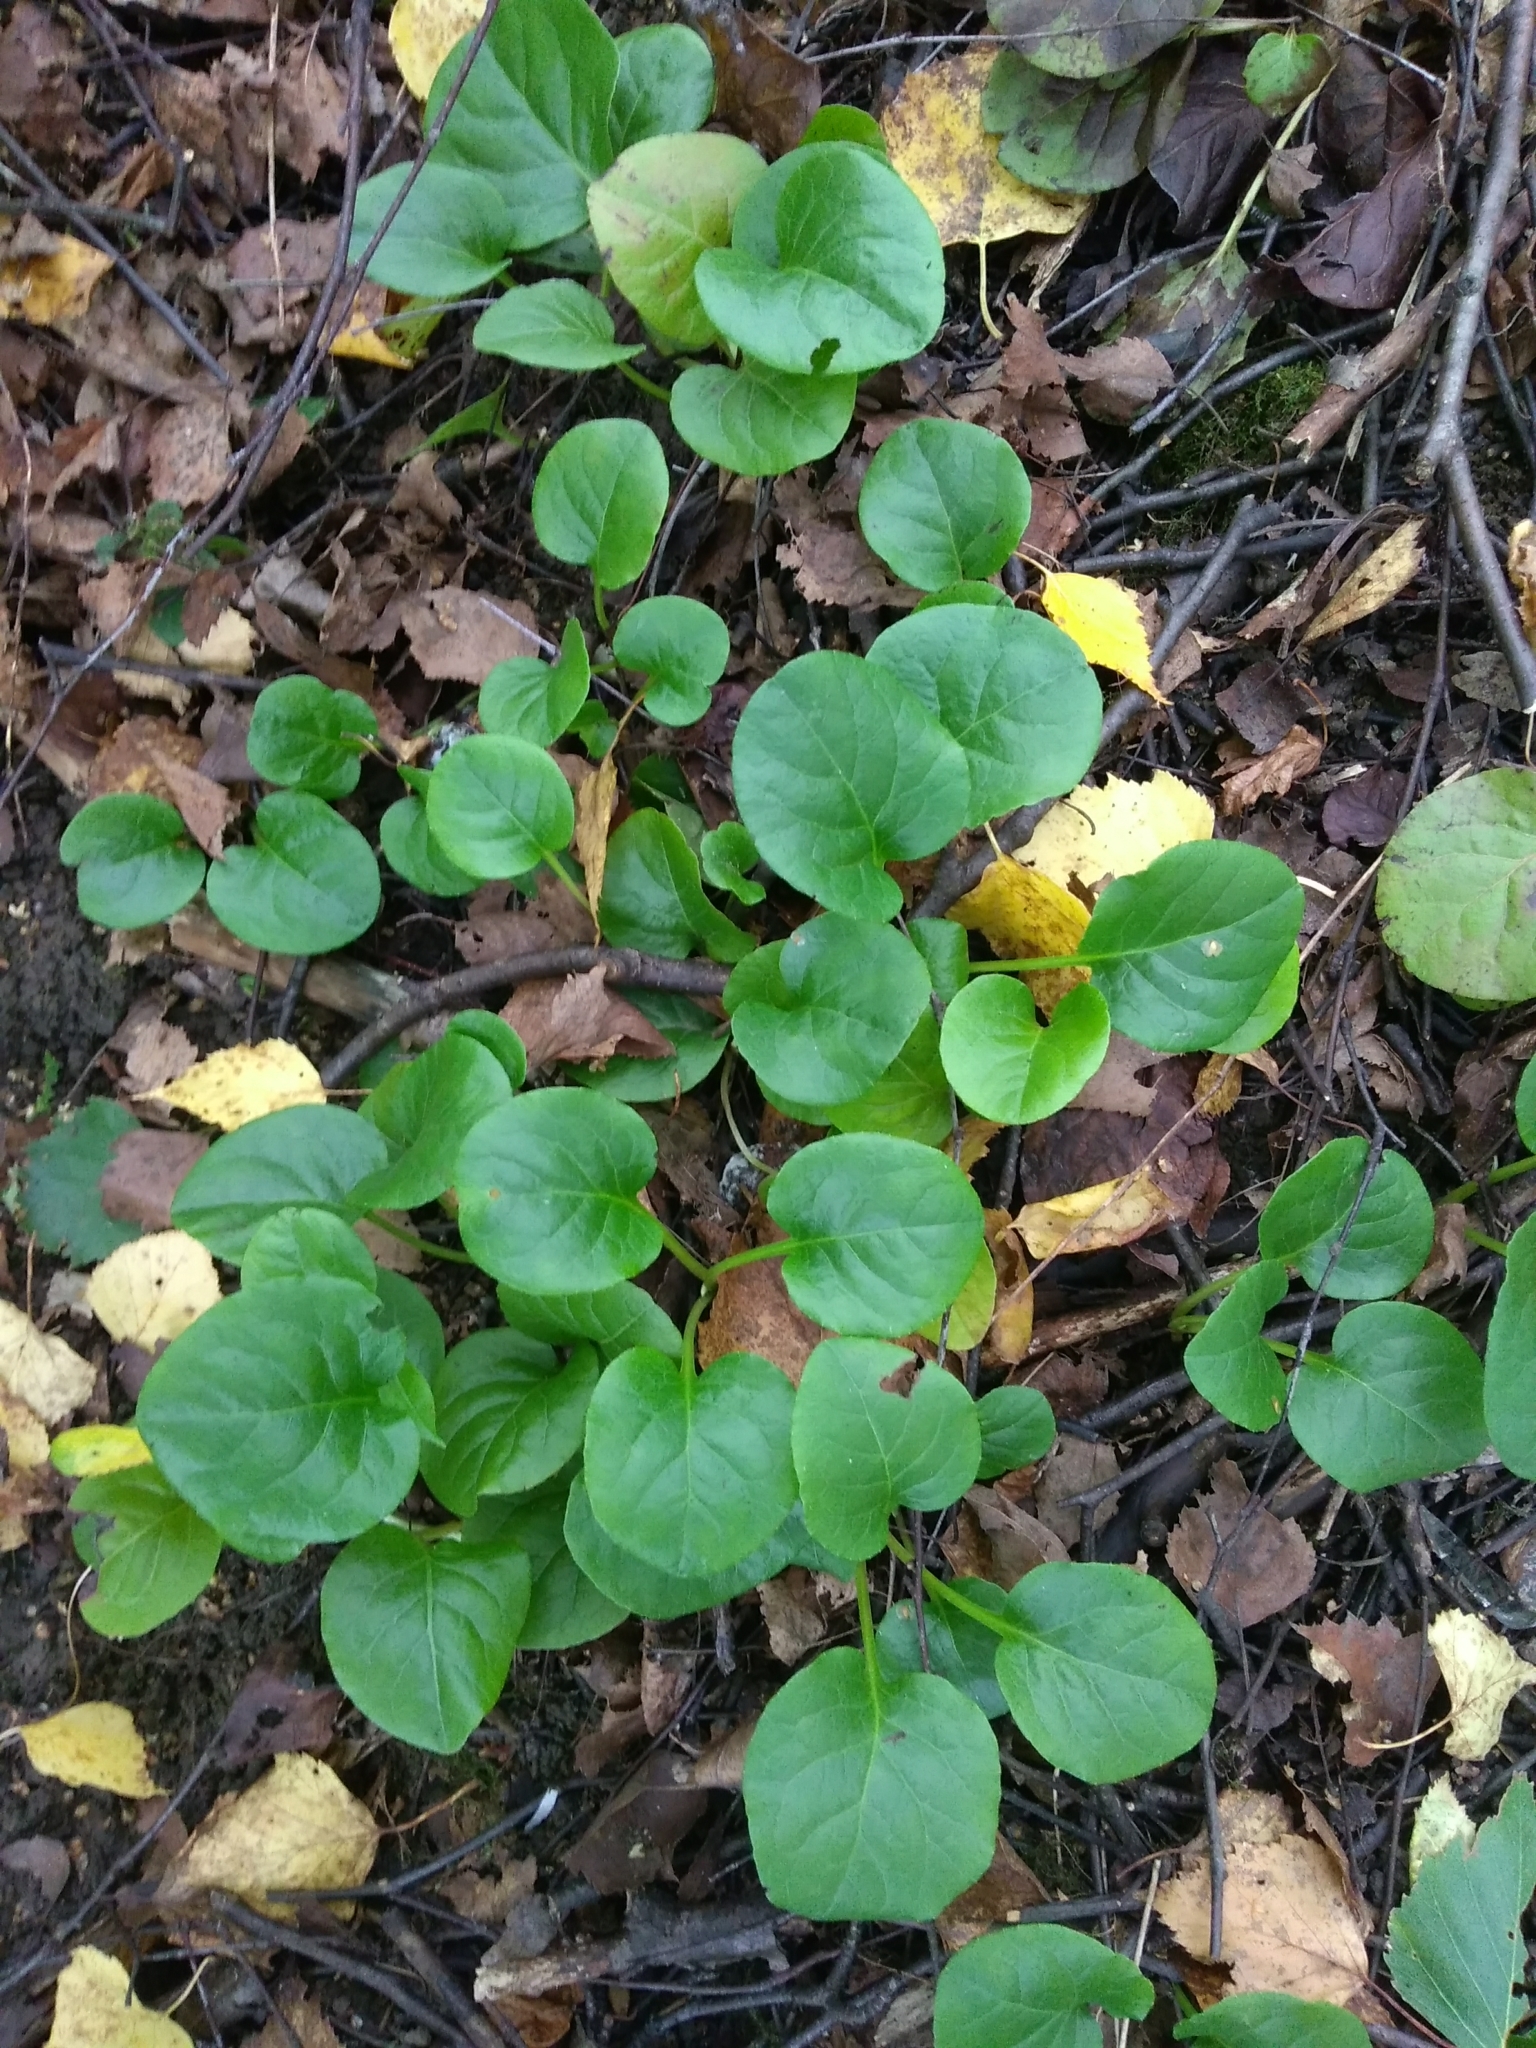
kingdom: Plantae
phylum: Tracheophyta
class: Magnoliopsida
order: Ericales
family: Ericaceae
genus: Pyrola
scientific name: Pyrola rotundifolia
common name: Round-leaved wintergreen
